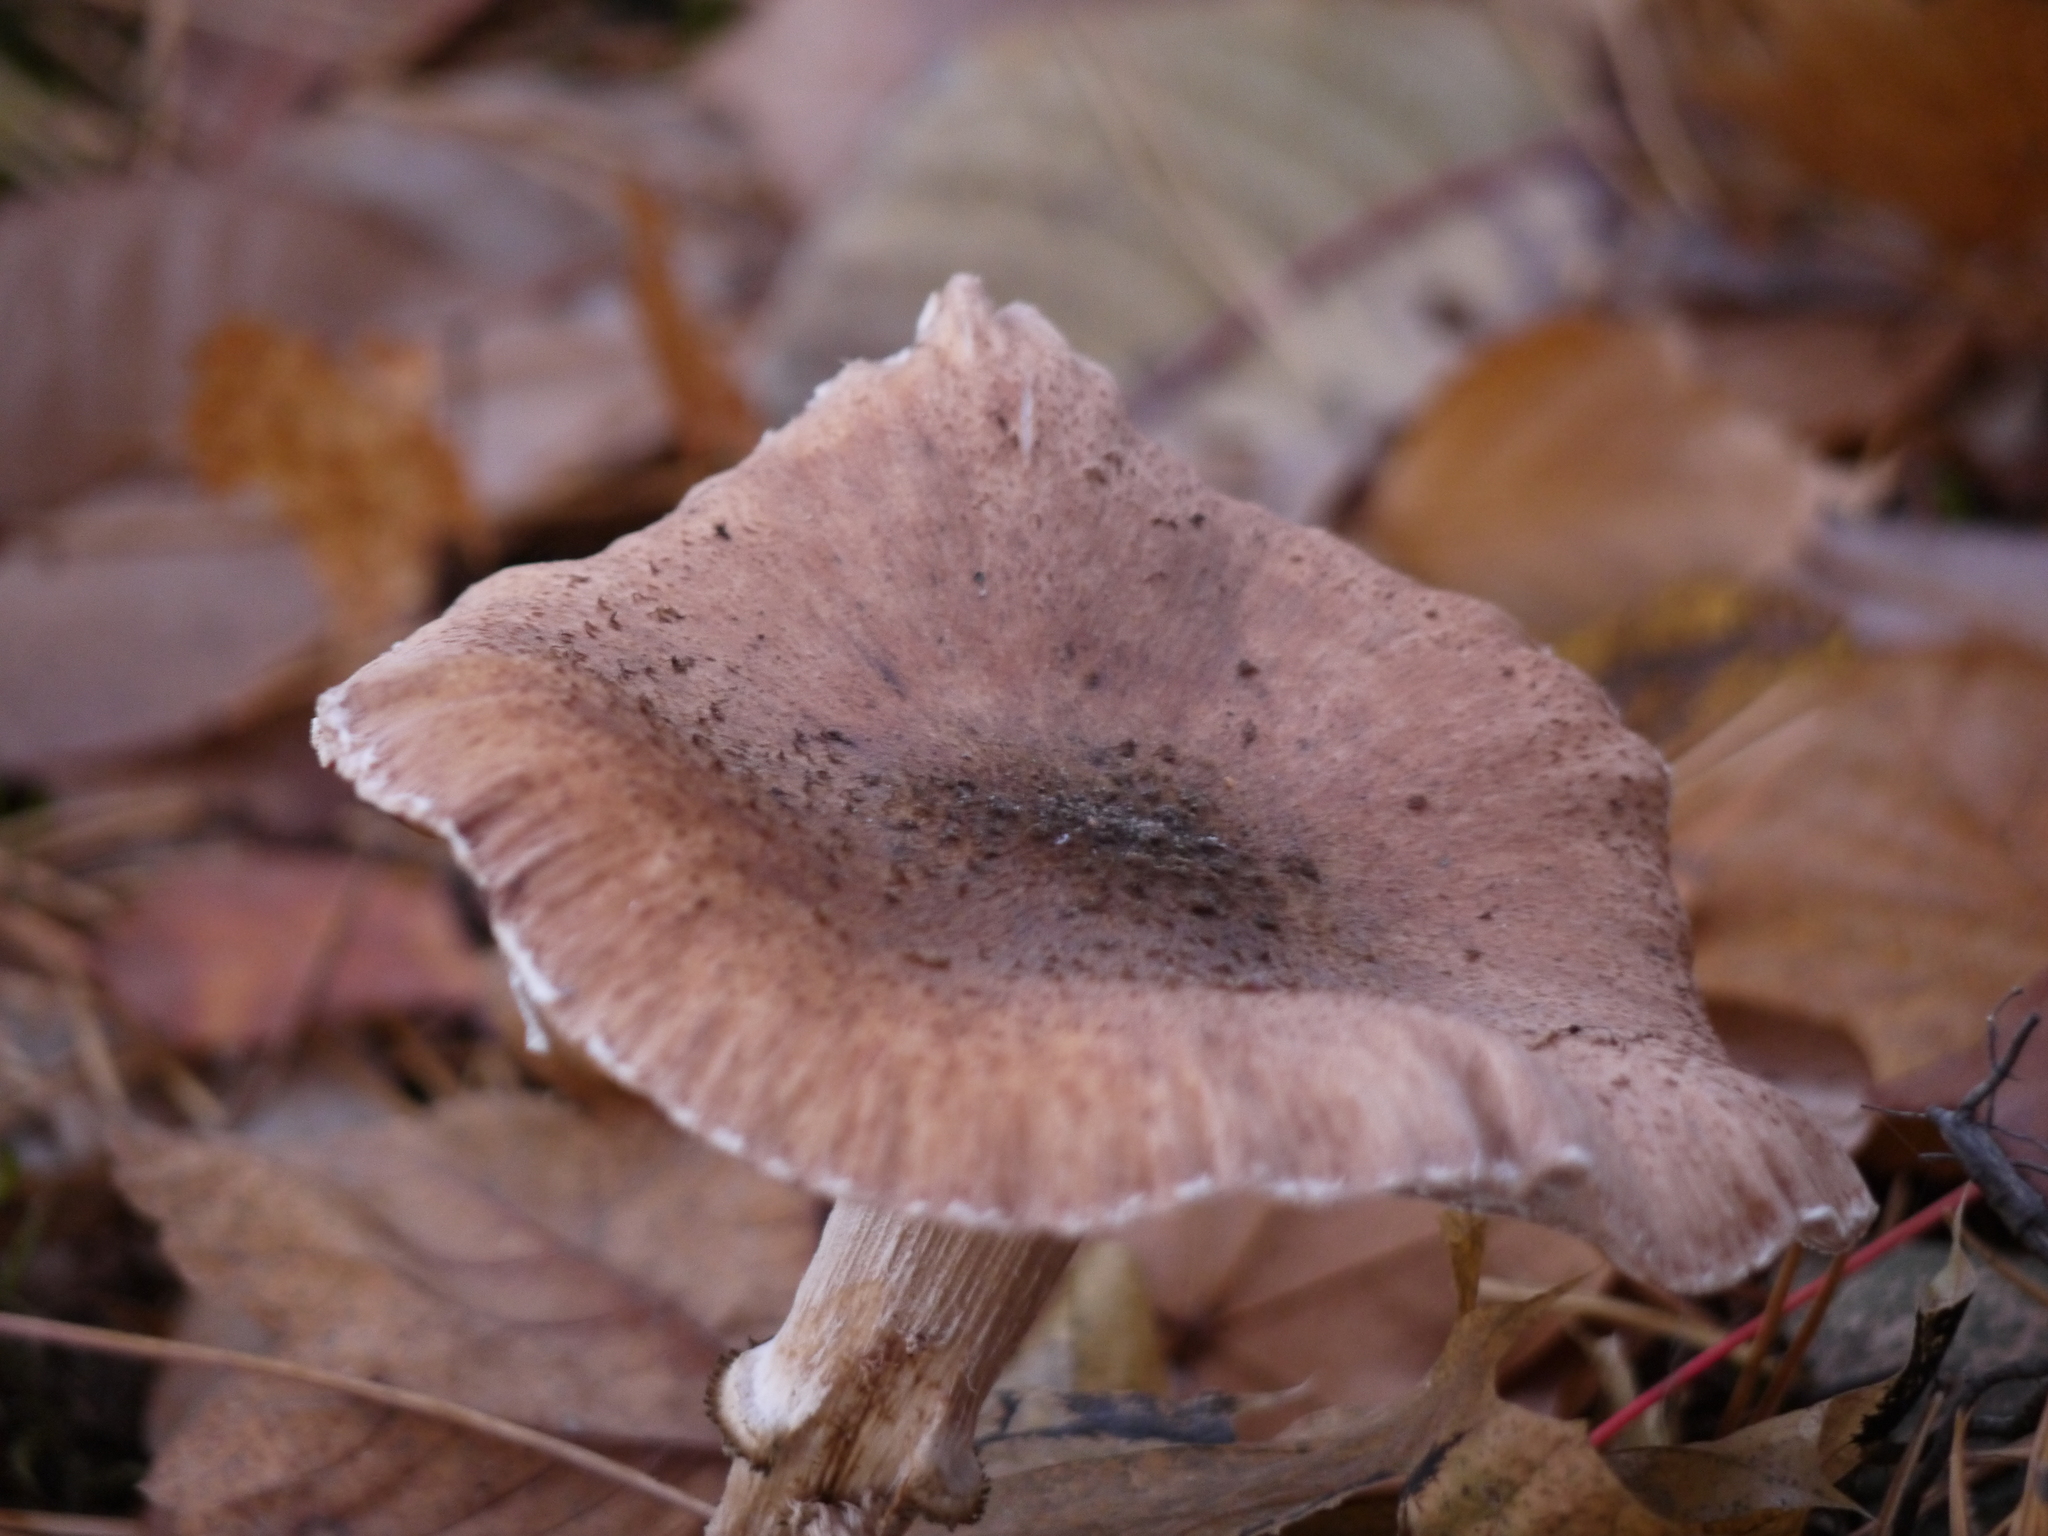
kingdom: Fungi
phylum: Basidiomycota
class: Agaricomycetes
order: Agaricales
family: Physalacriaceae
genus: Armillaria
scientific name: Armillaria mellea
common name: Honey fungus
